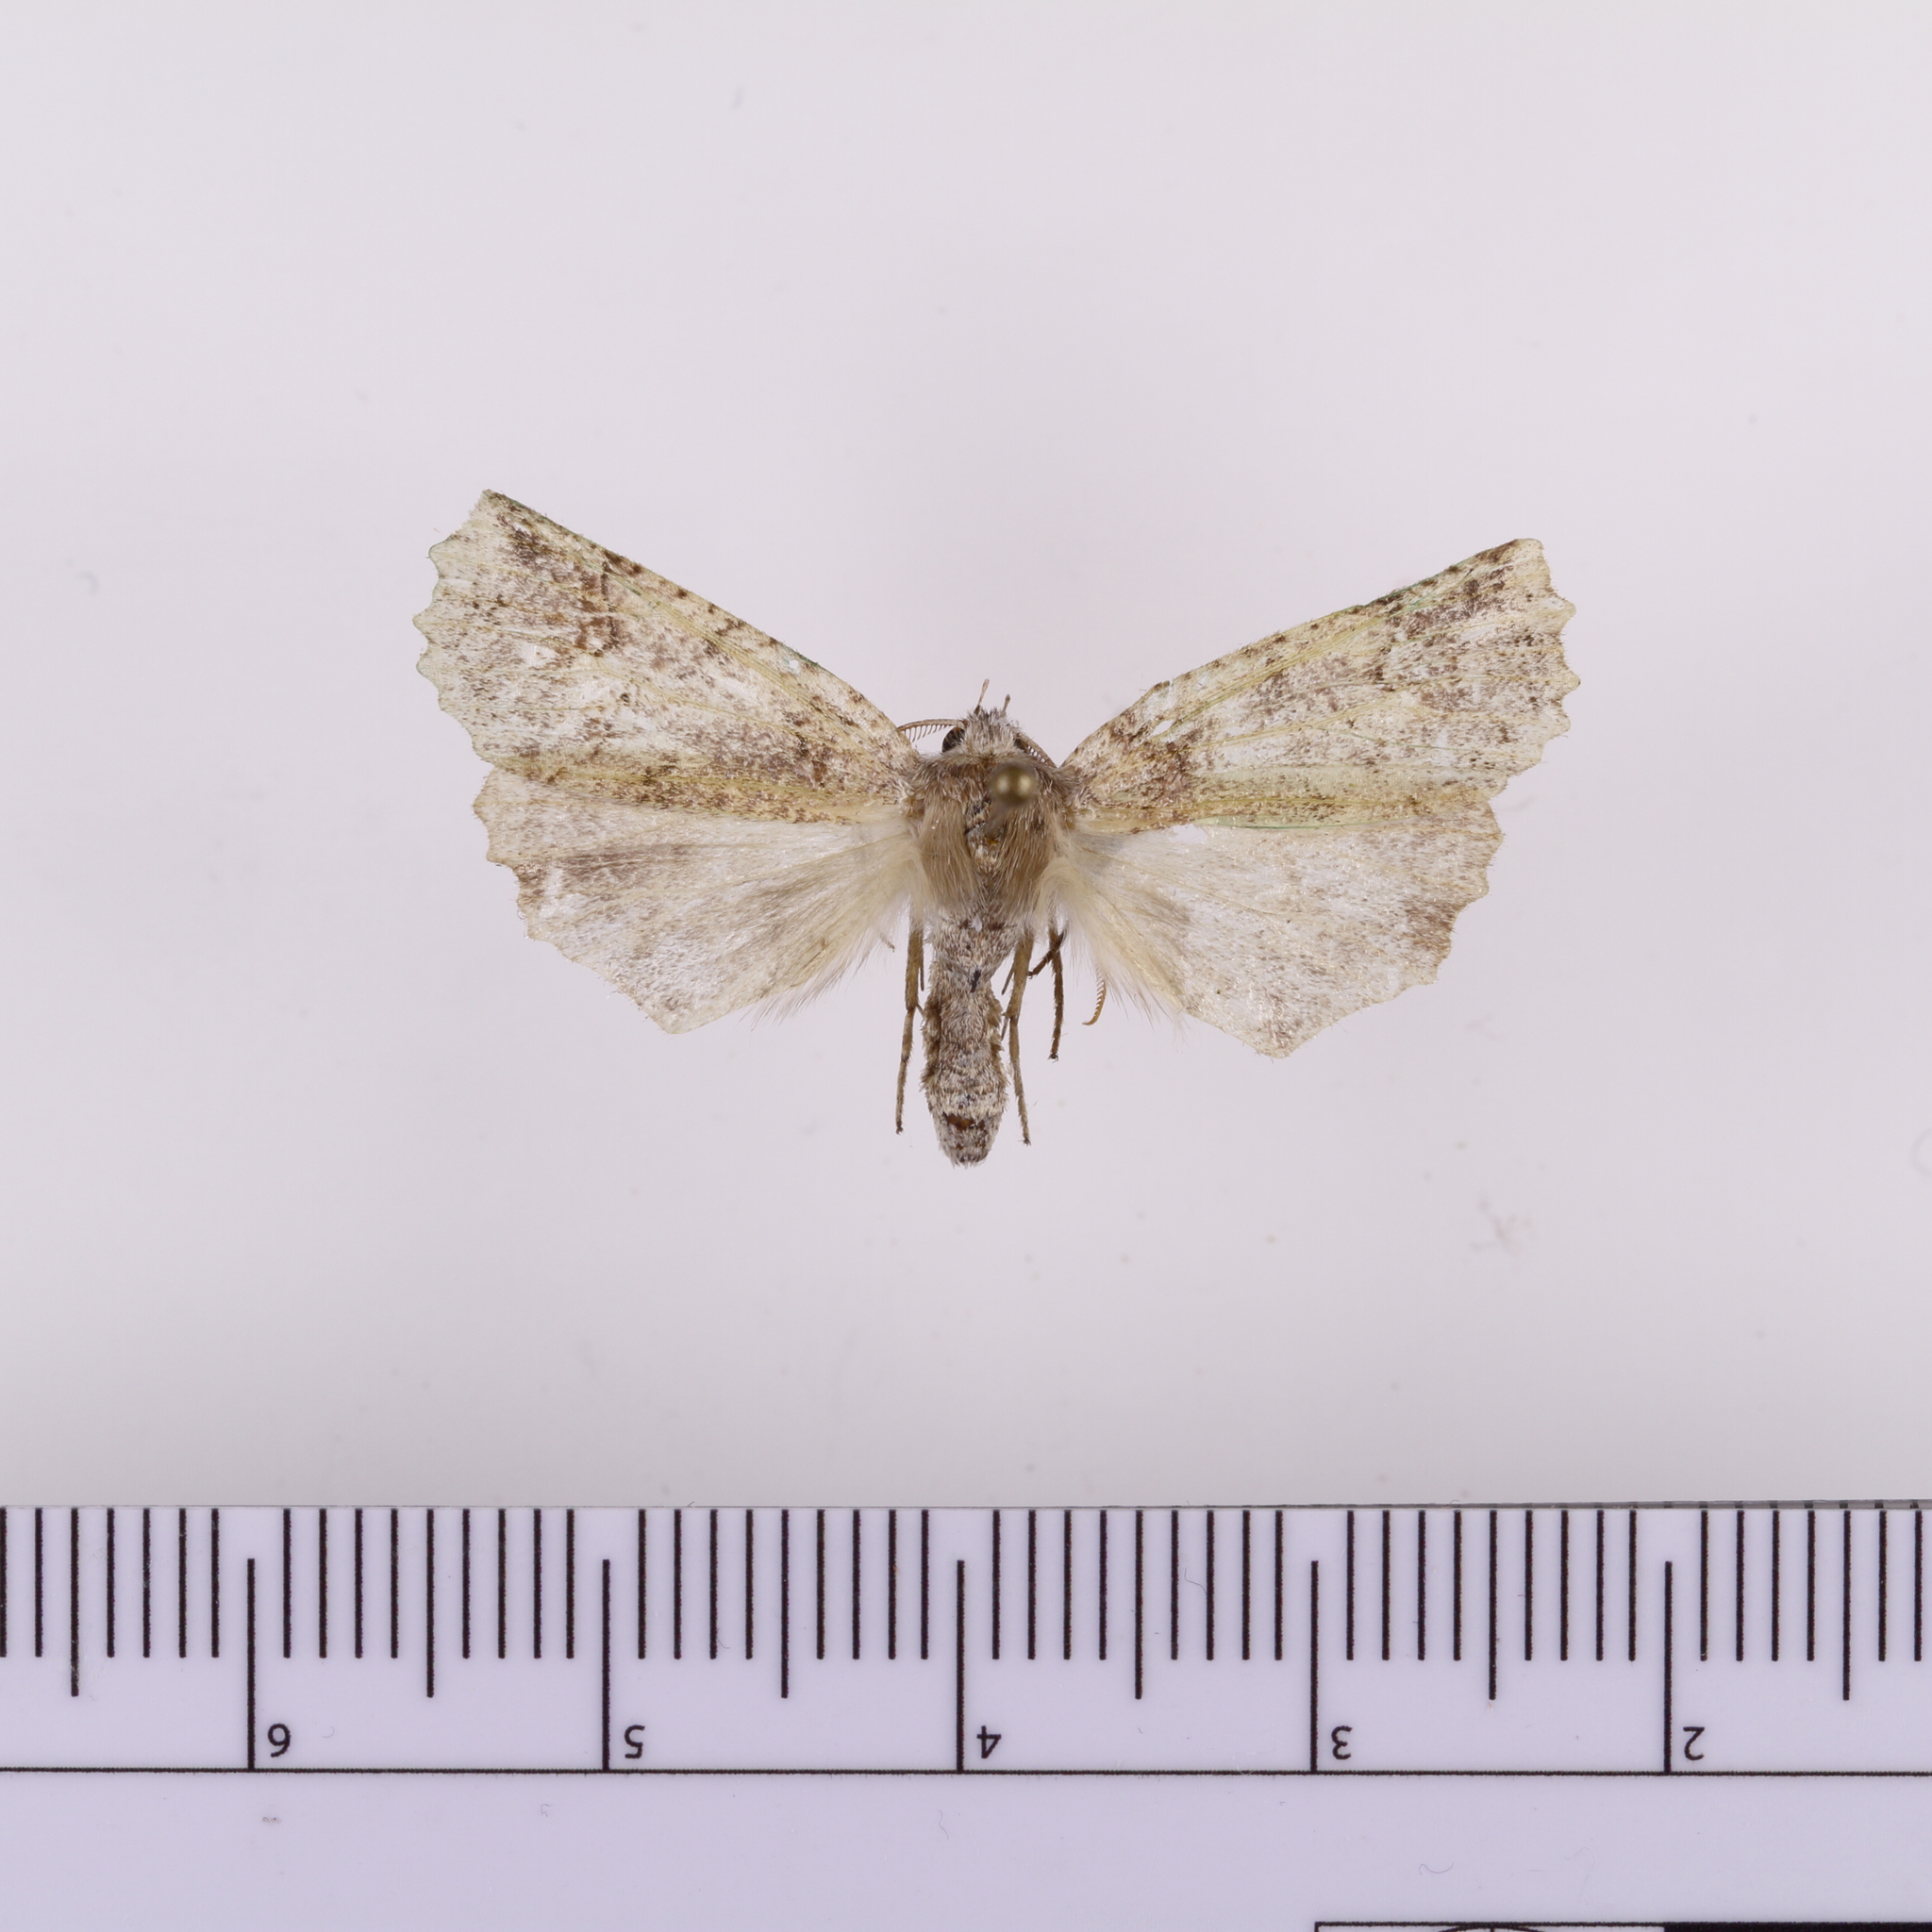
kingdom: Animalia
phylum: Arthropoda
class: Insecta
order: Lepidoptera
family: Geometridae
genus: Declana
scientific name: Declana floccosa
